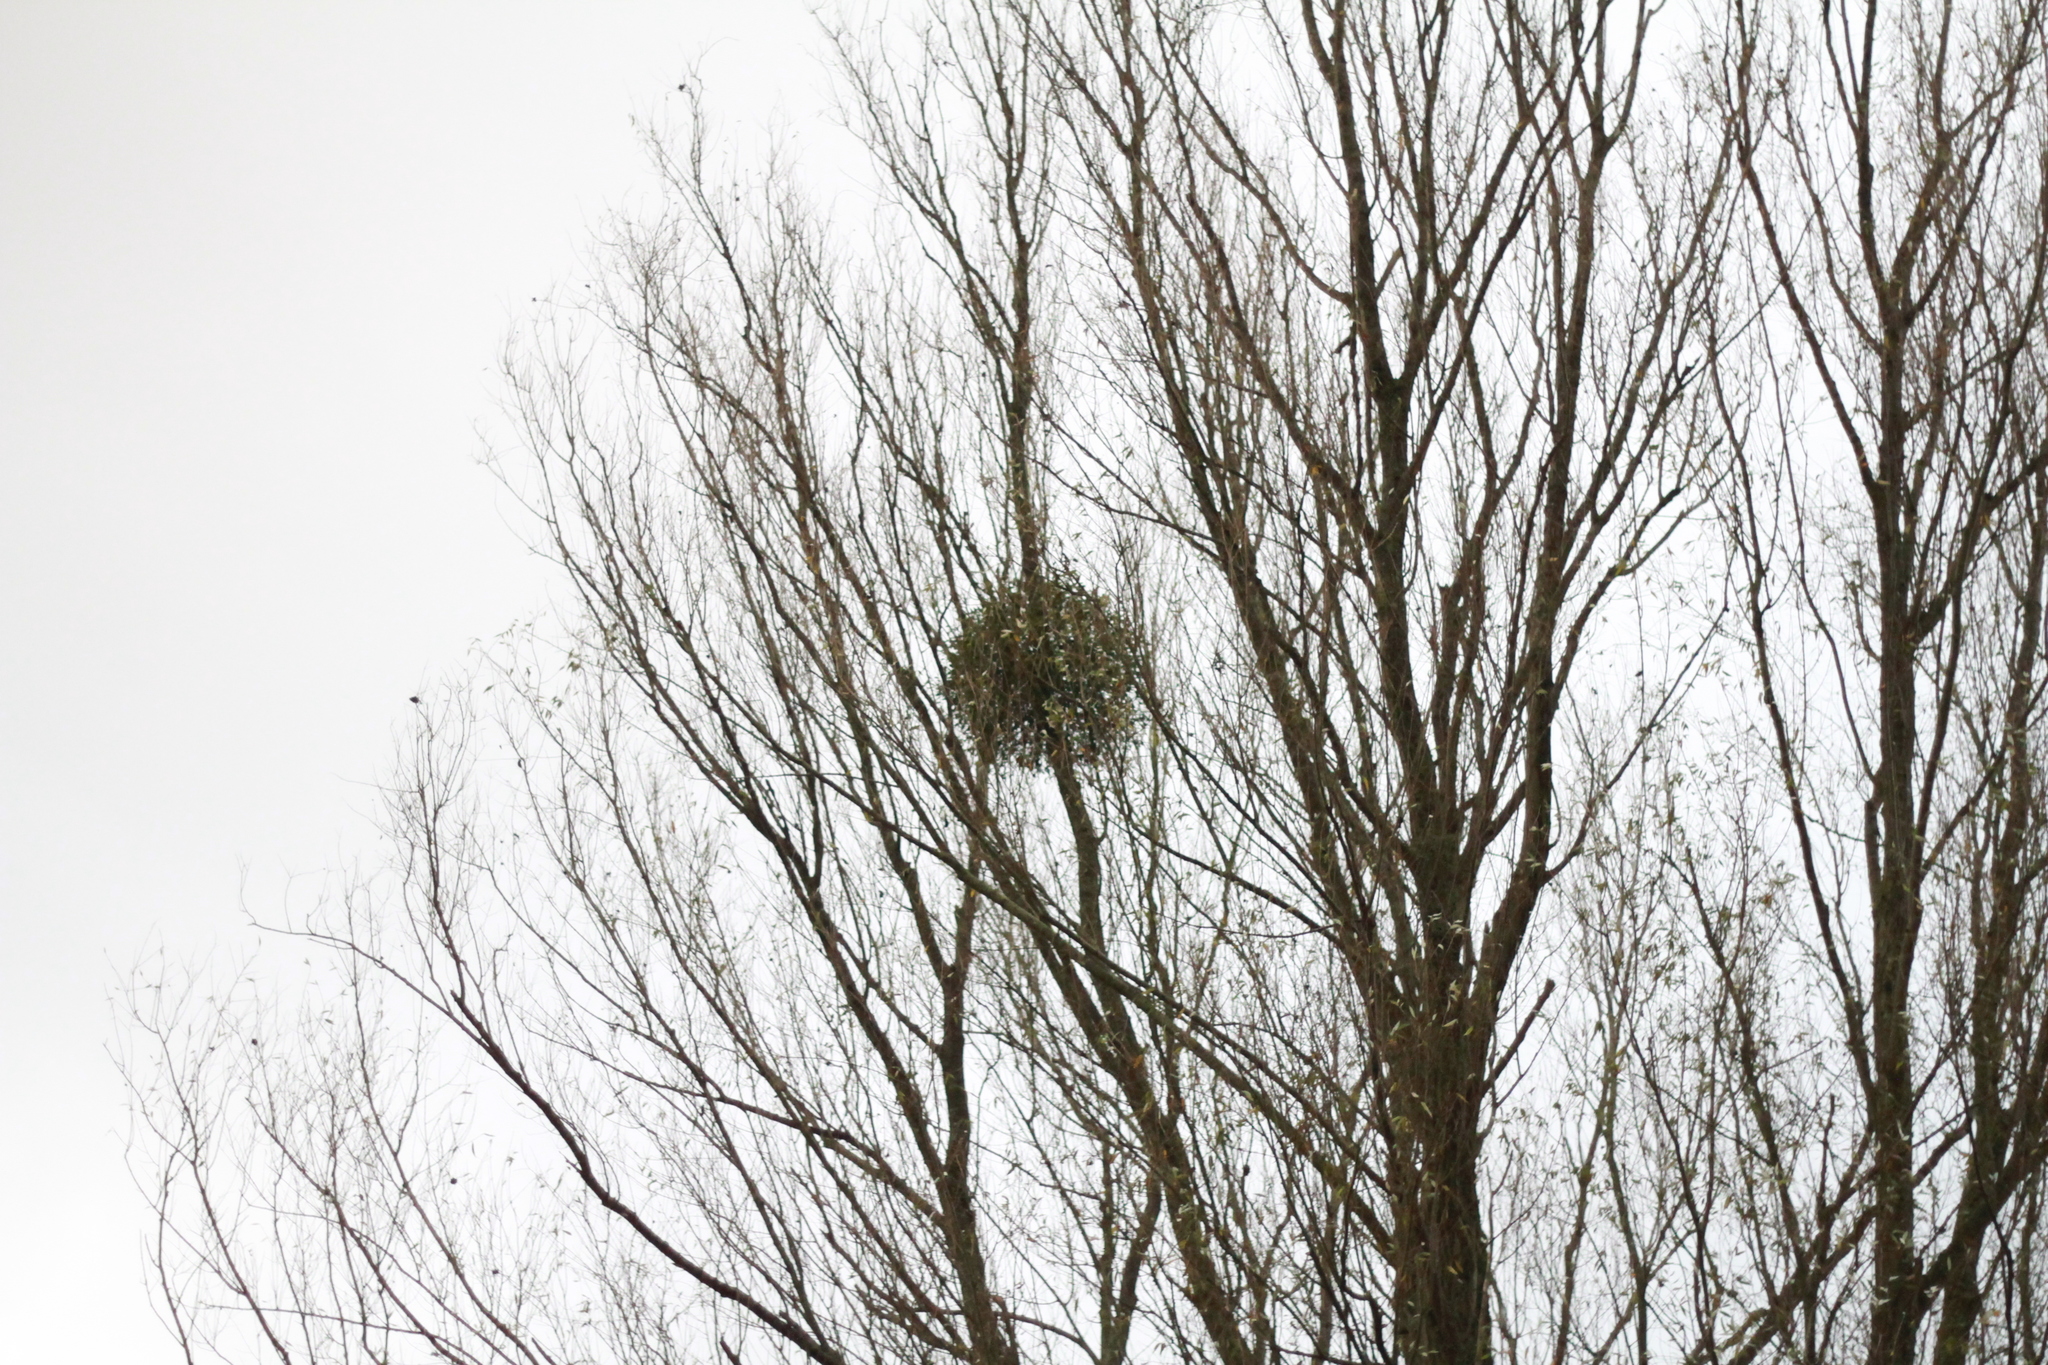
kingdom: Plantae
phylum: Tracheophyta
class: Magnoliopsida
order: Santalales
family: Viscaceae
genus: Viscum
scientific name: Viscum album
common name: Mistletoe
